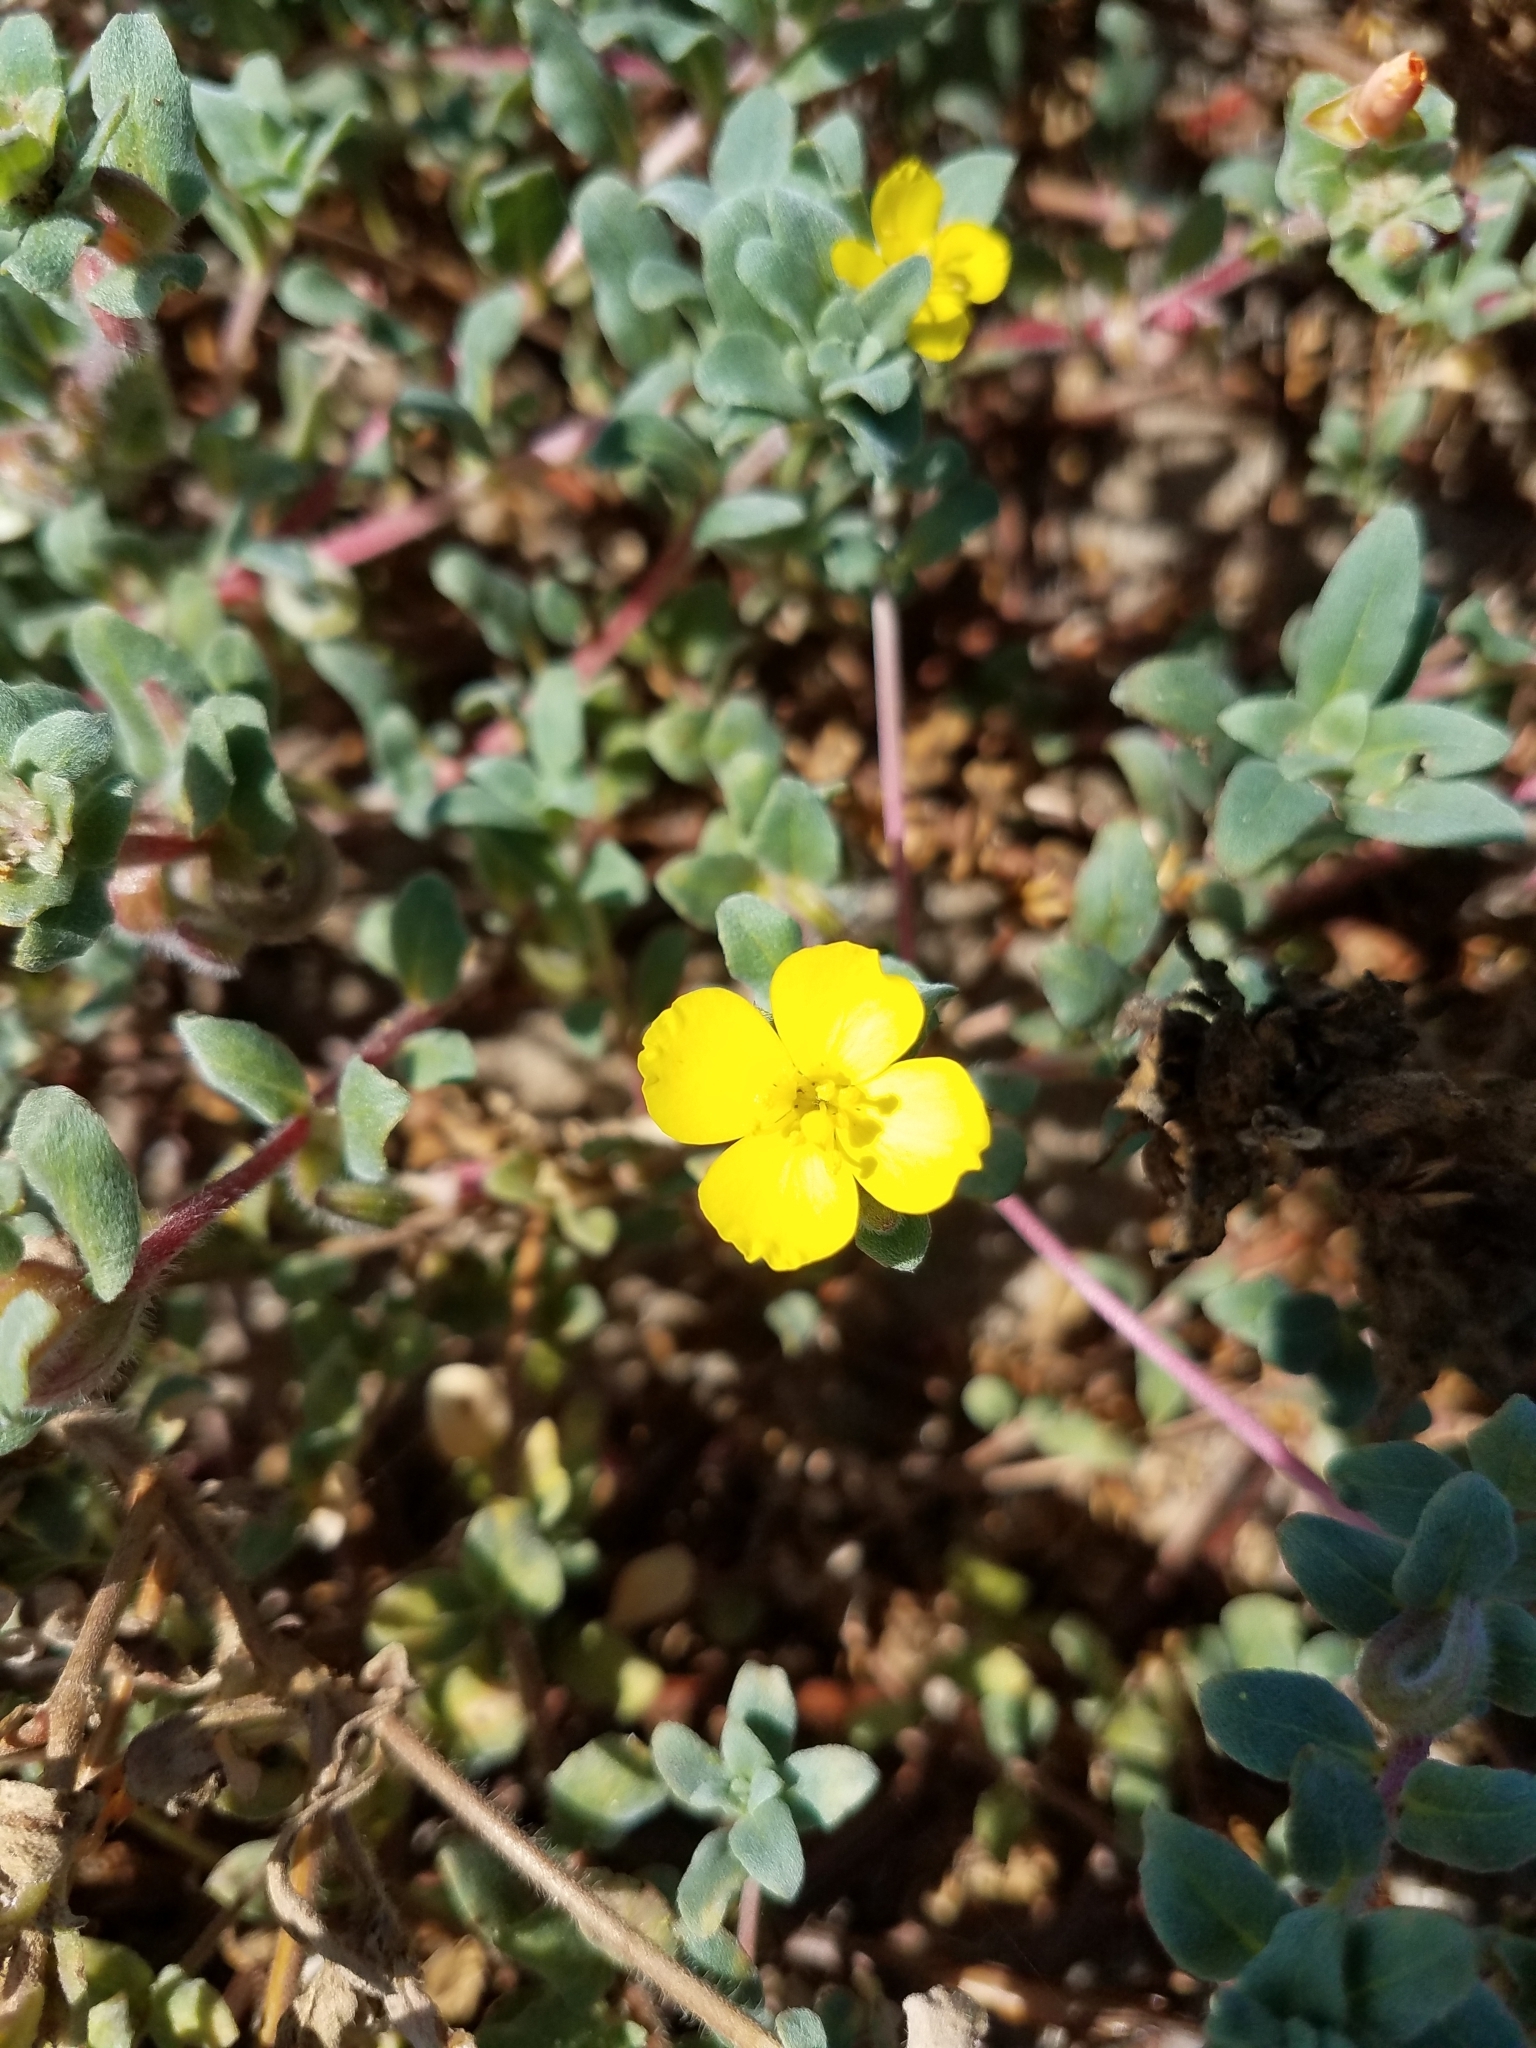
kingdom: Plantae
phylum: Tracheophyta
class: Magnoliopsida
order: Myrtales
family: Onagraceae
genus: Camissoniopsis
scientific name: Camissoniopsis cheiranthifolia
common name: Beach suncup
